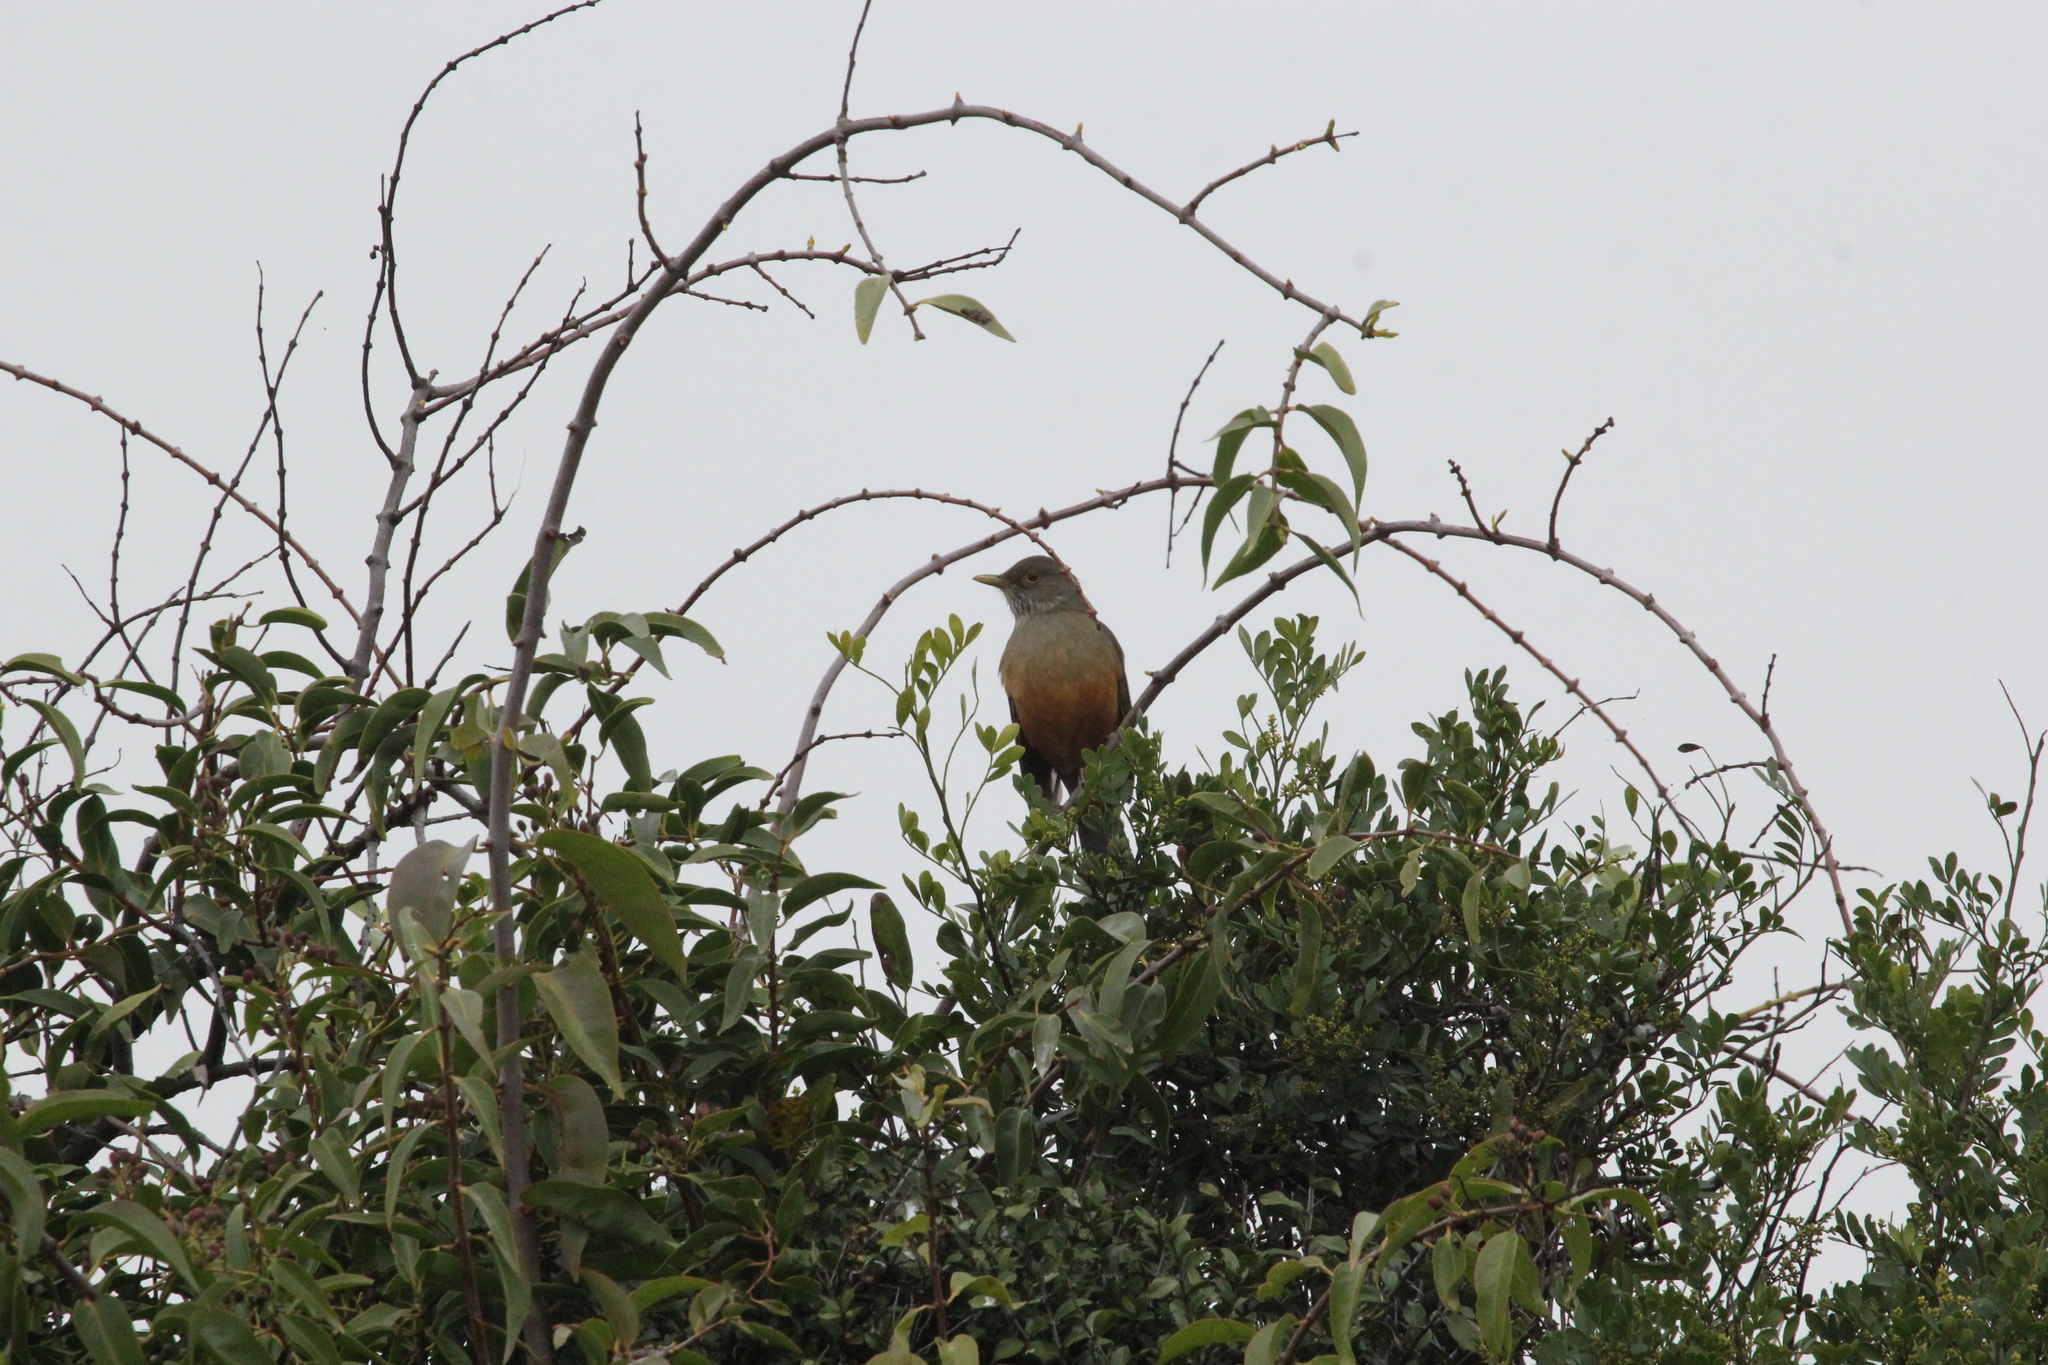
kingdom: Animalia
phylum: Chordata
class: Aves
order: Passeriformes
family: Turdidae
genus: Turdus
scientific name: Turdus rufiventris
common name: Rufous-bellied thrush
